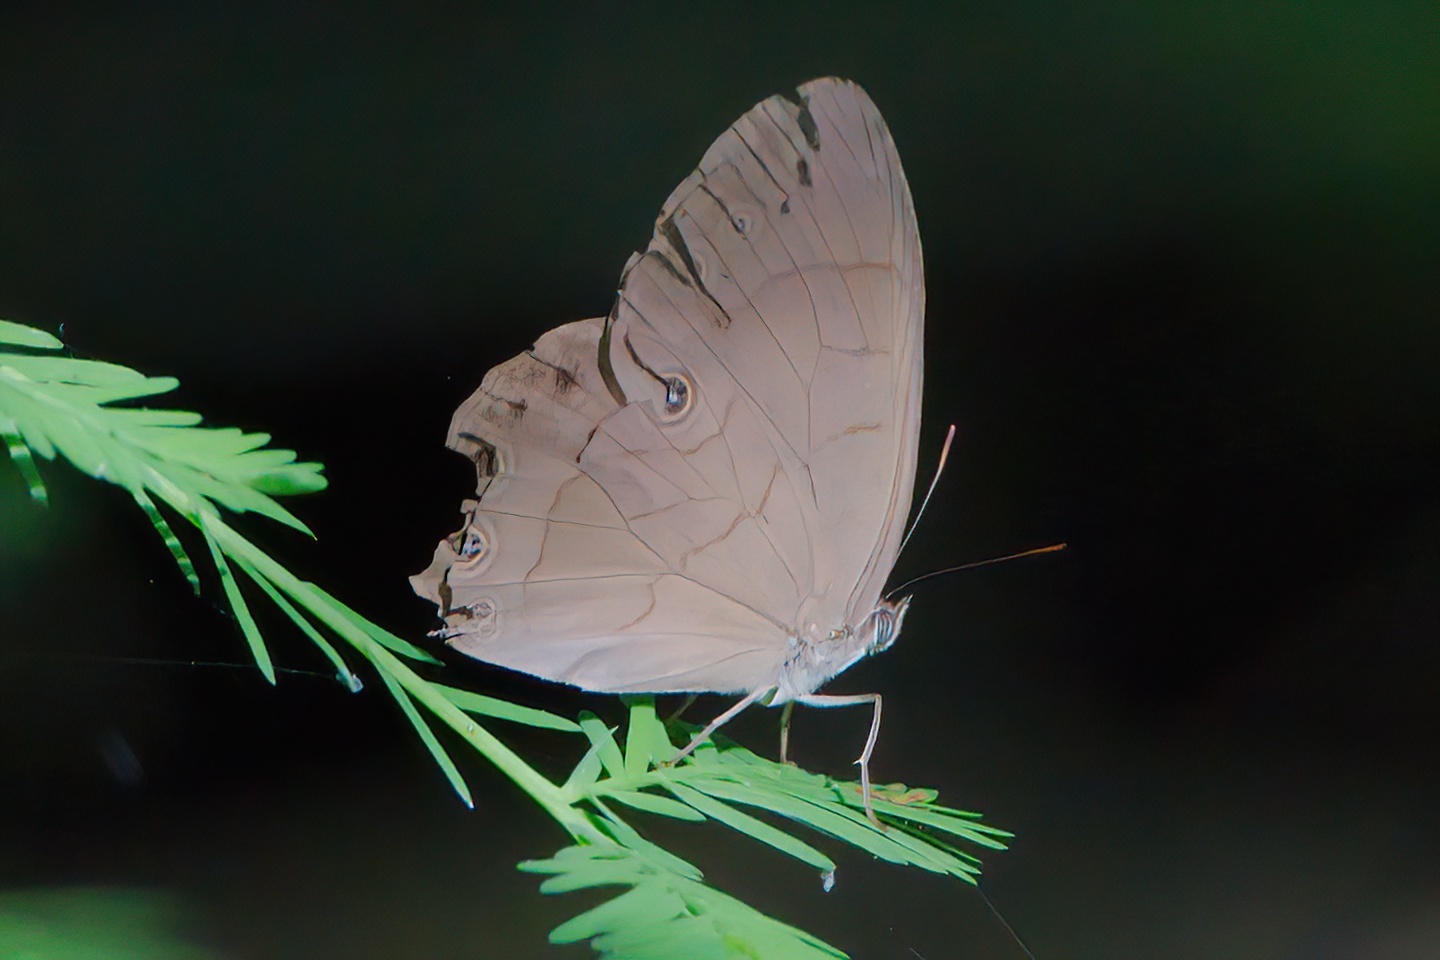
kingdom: Animalia
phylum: Arthropoda
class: Insecta
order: Lepidoptera
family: Nymphalidae
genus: Lethe
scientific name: Lethe eurydice
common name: Eyed brown
